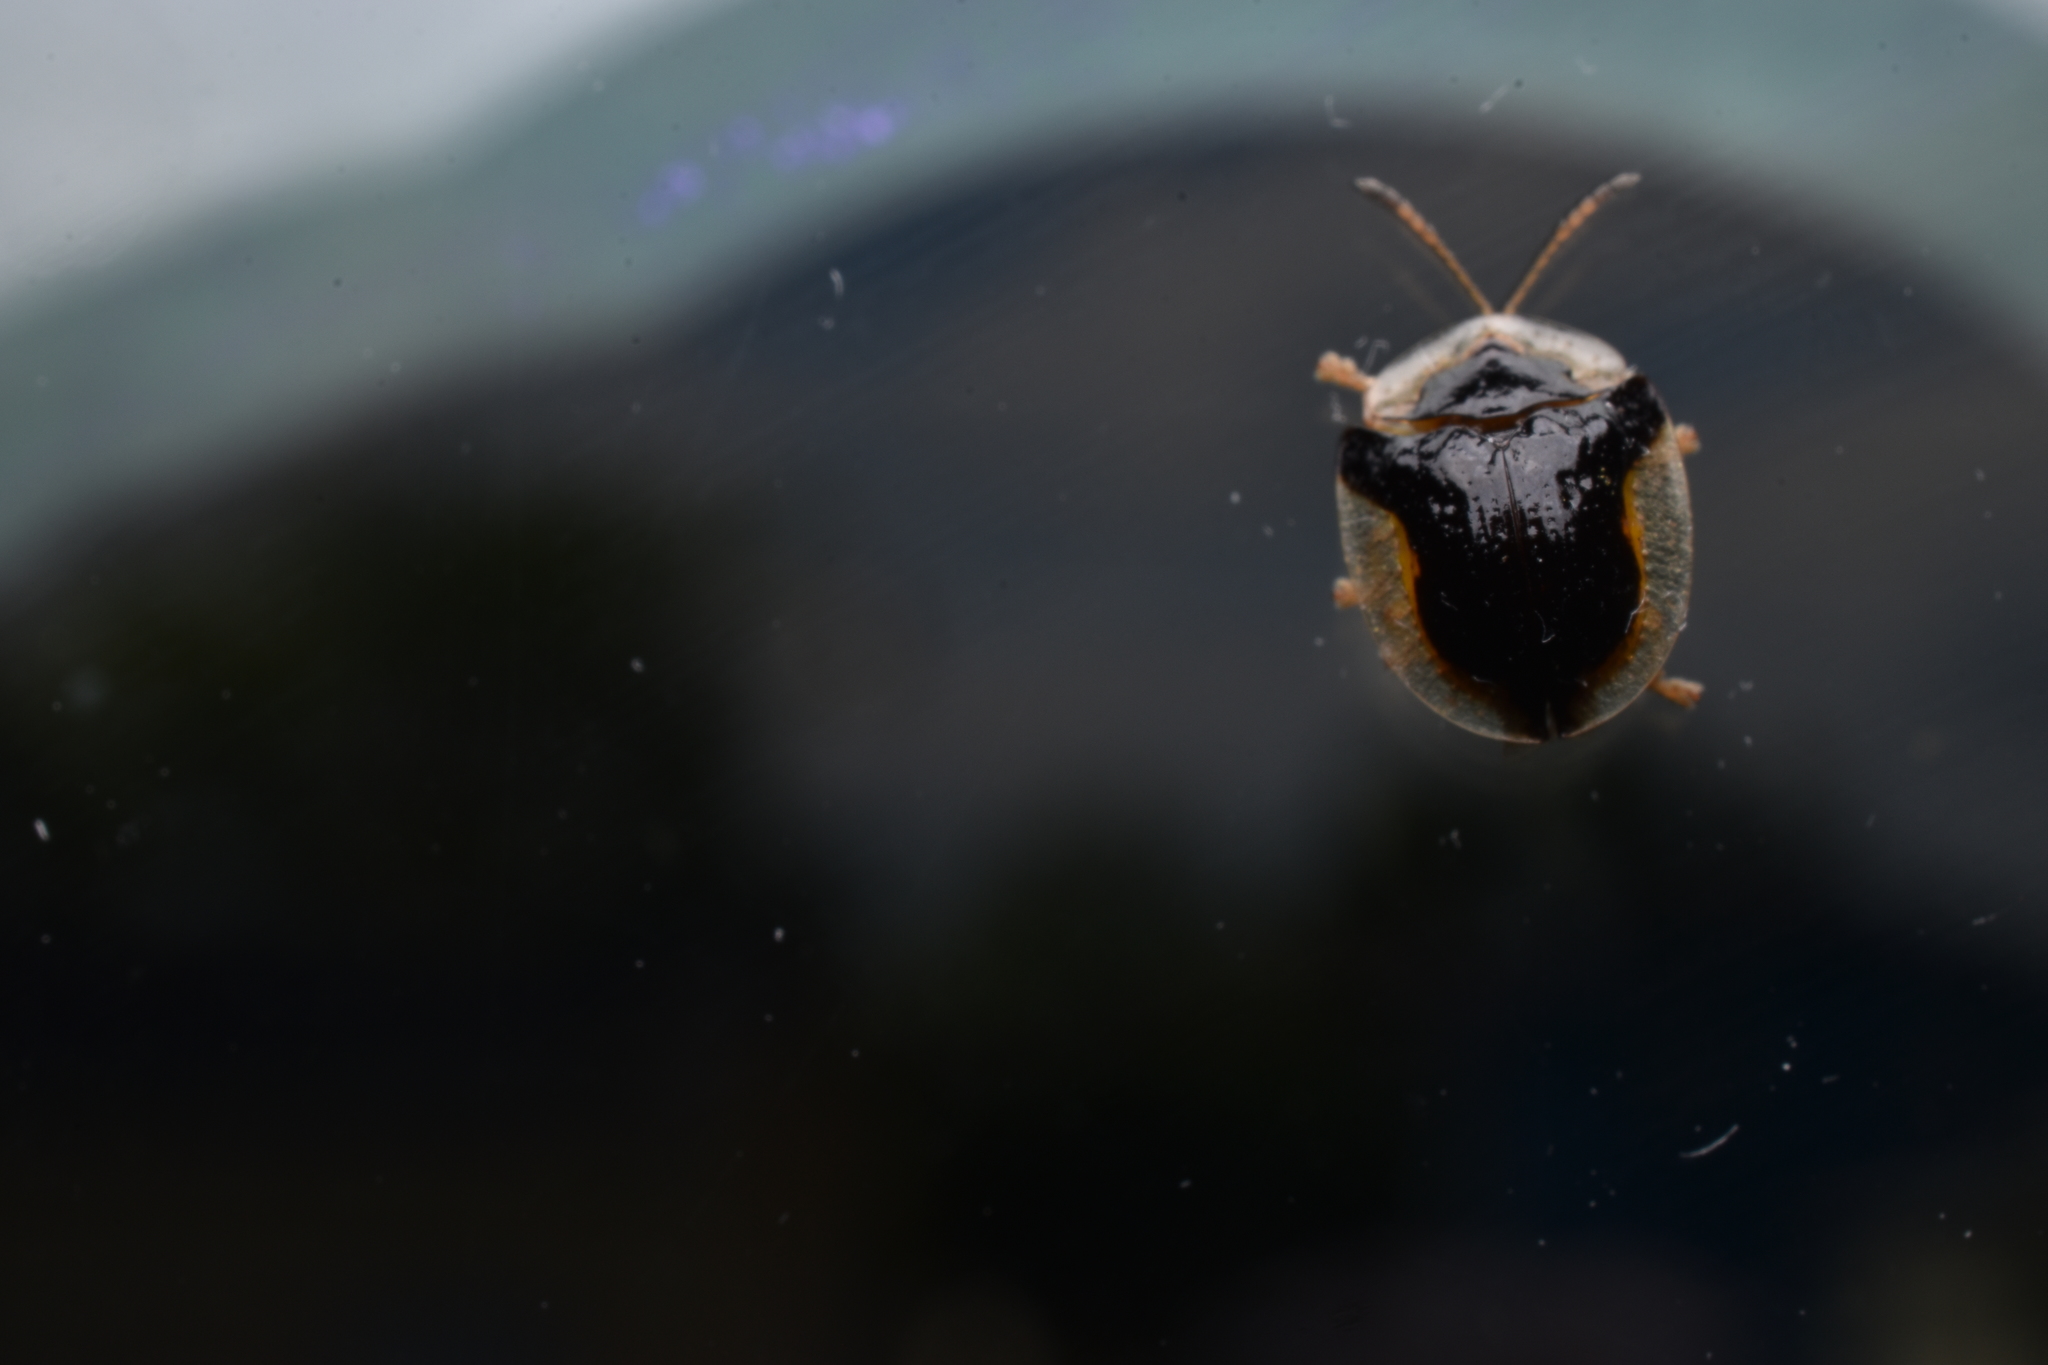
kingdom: Animalia
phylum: Arthropoda
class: Insecta
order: Coleoptera
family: Chrysomelidae
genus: Deloyala
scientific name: Deloyala guttata
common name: Mottled tortoise beetle
